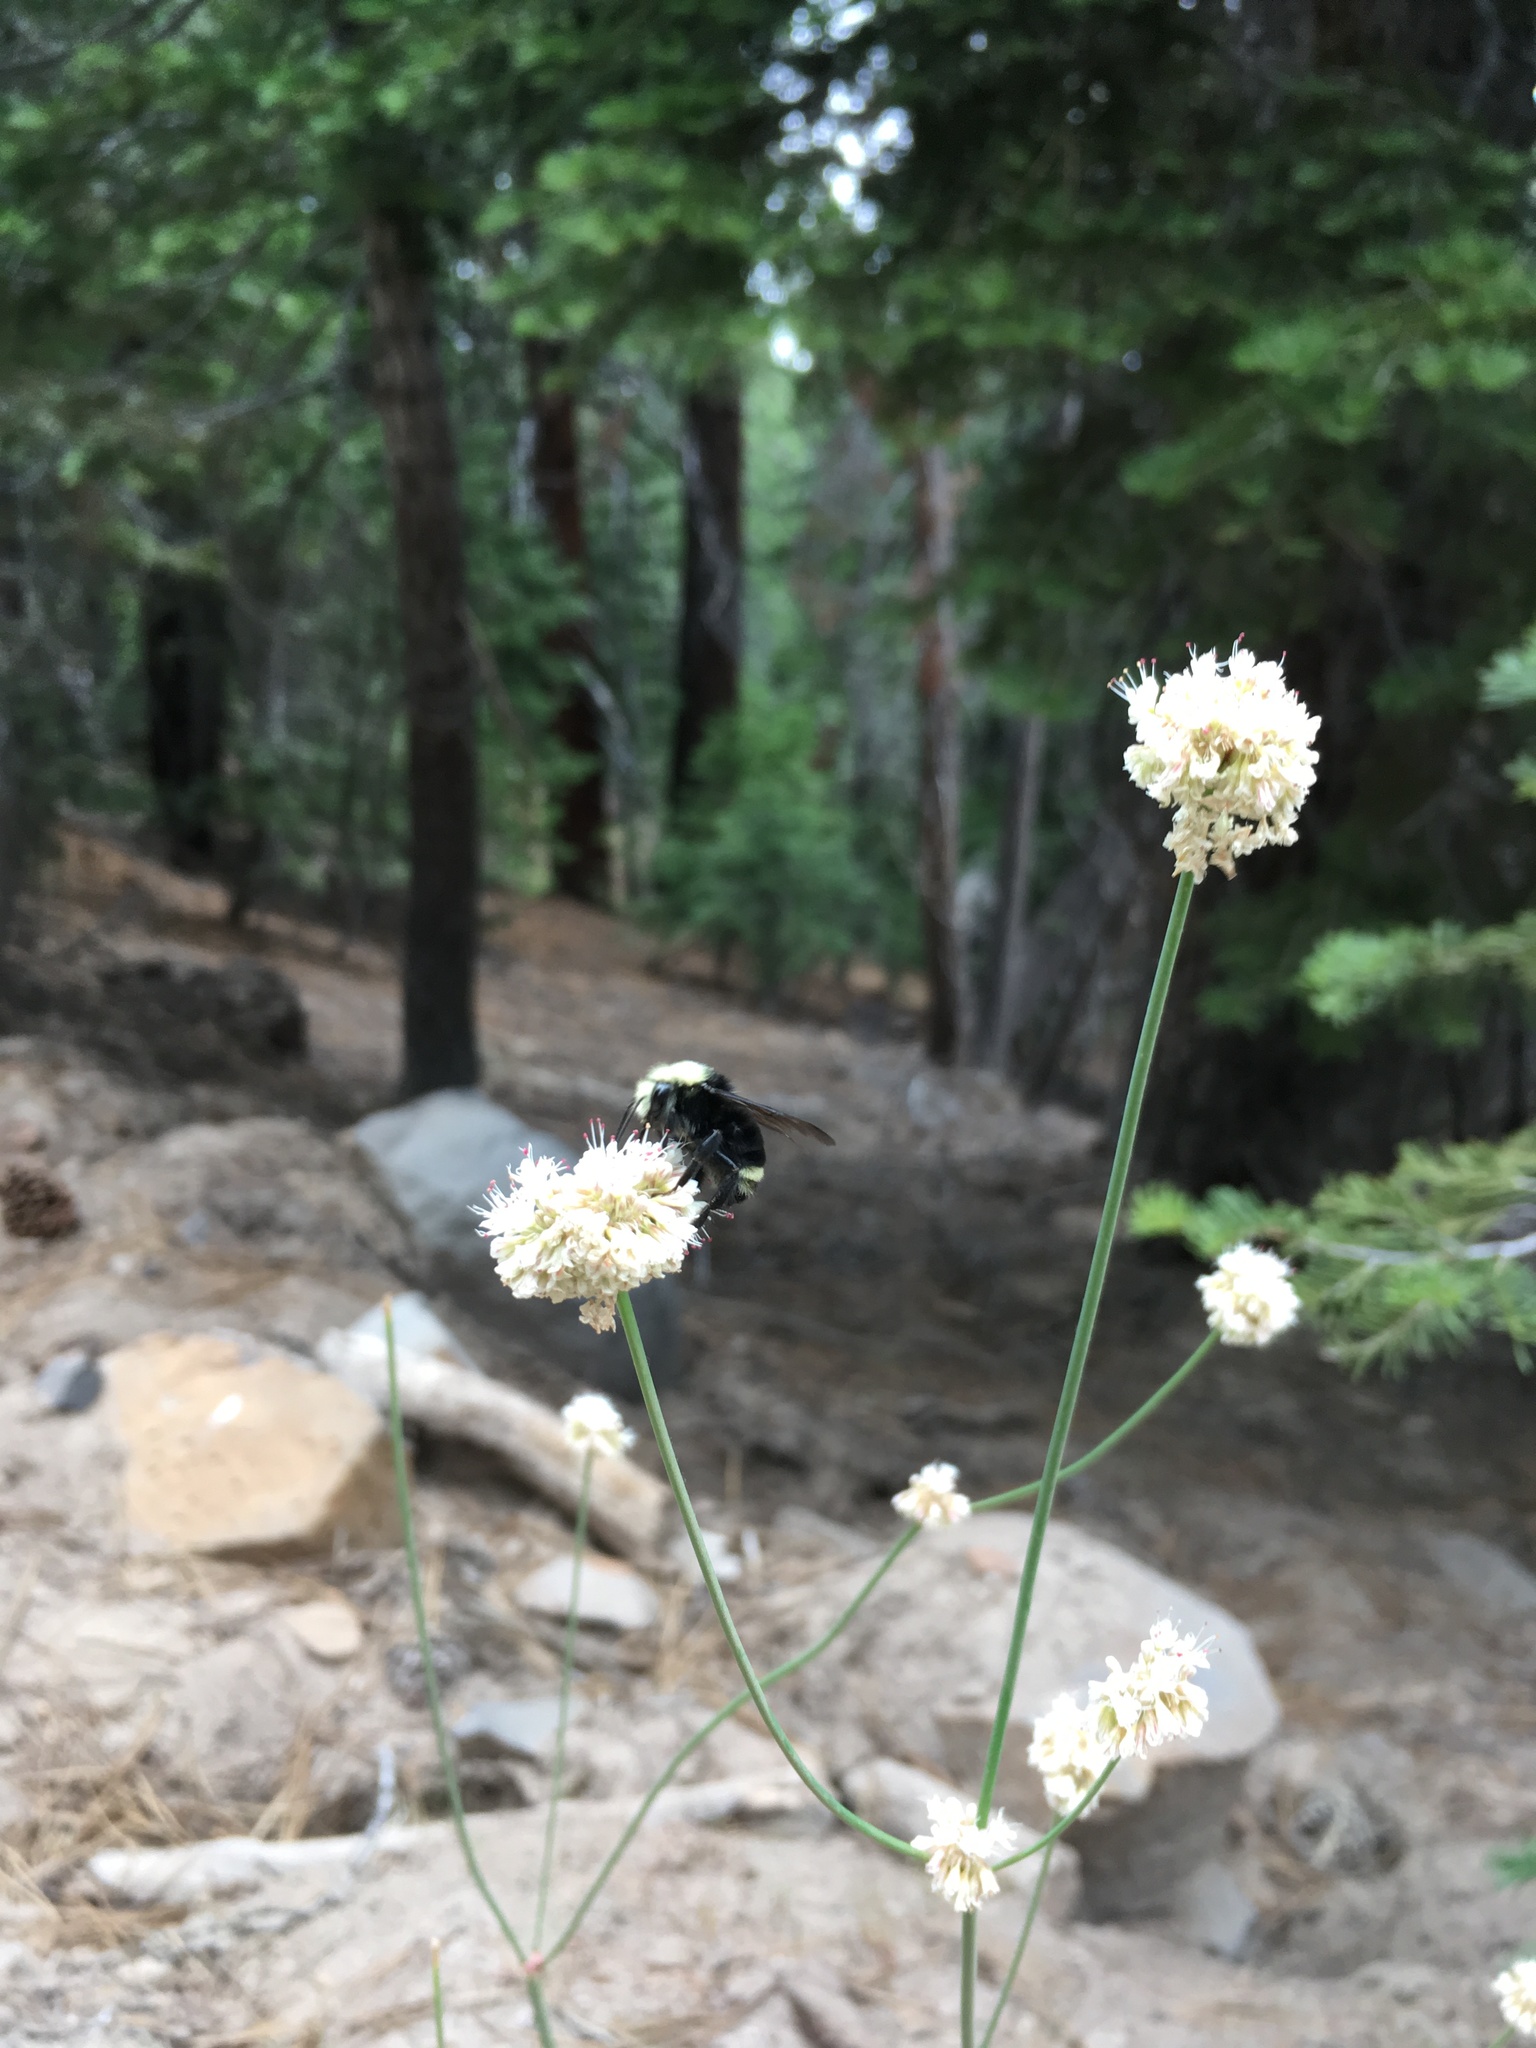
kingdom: Animalia
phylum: Arthropoda
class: Insecta
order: Hymenoptera
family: Apidae
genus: Bombus
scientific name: Bombus vosnesenskii
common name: Vosnesensky bumble bee
